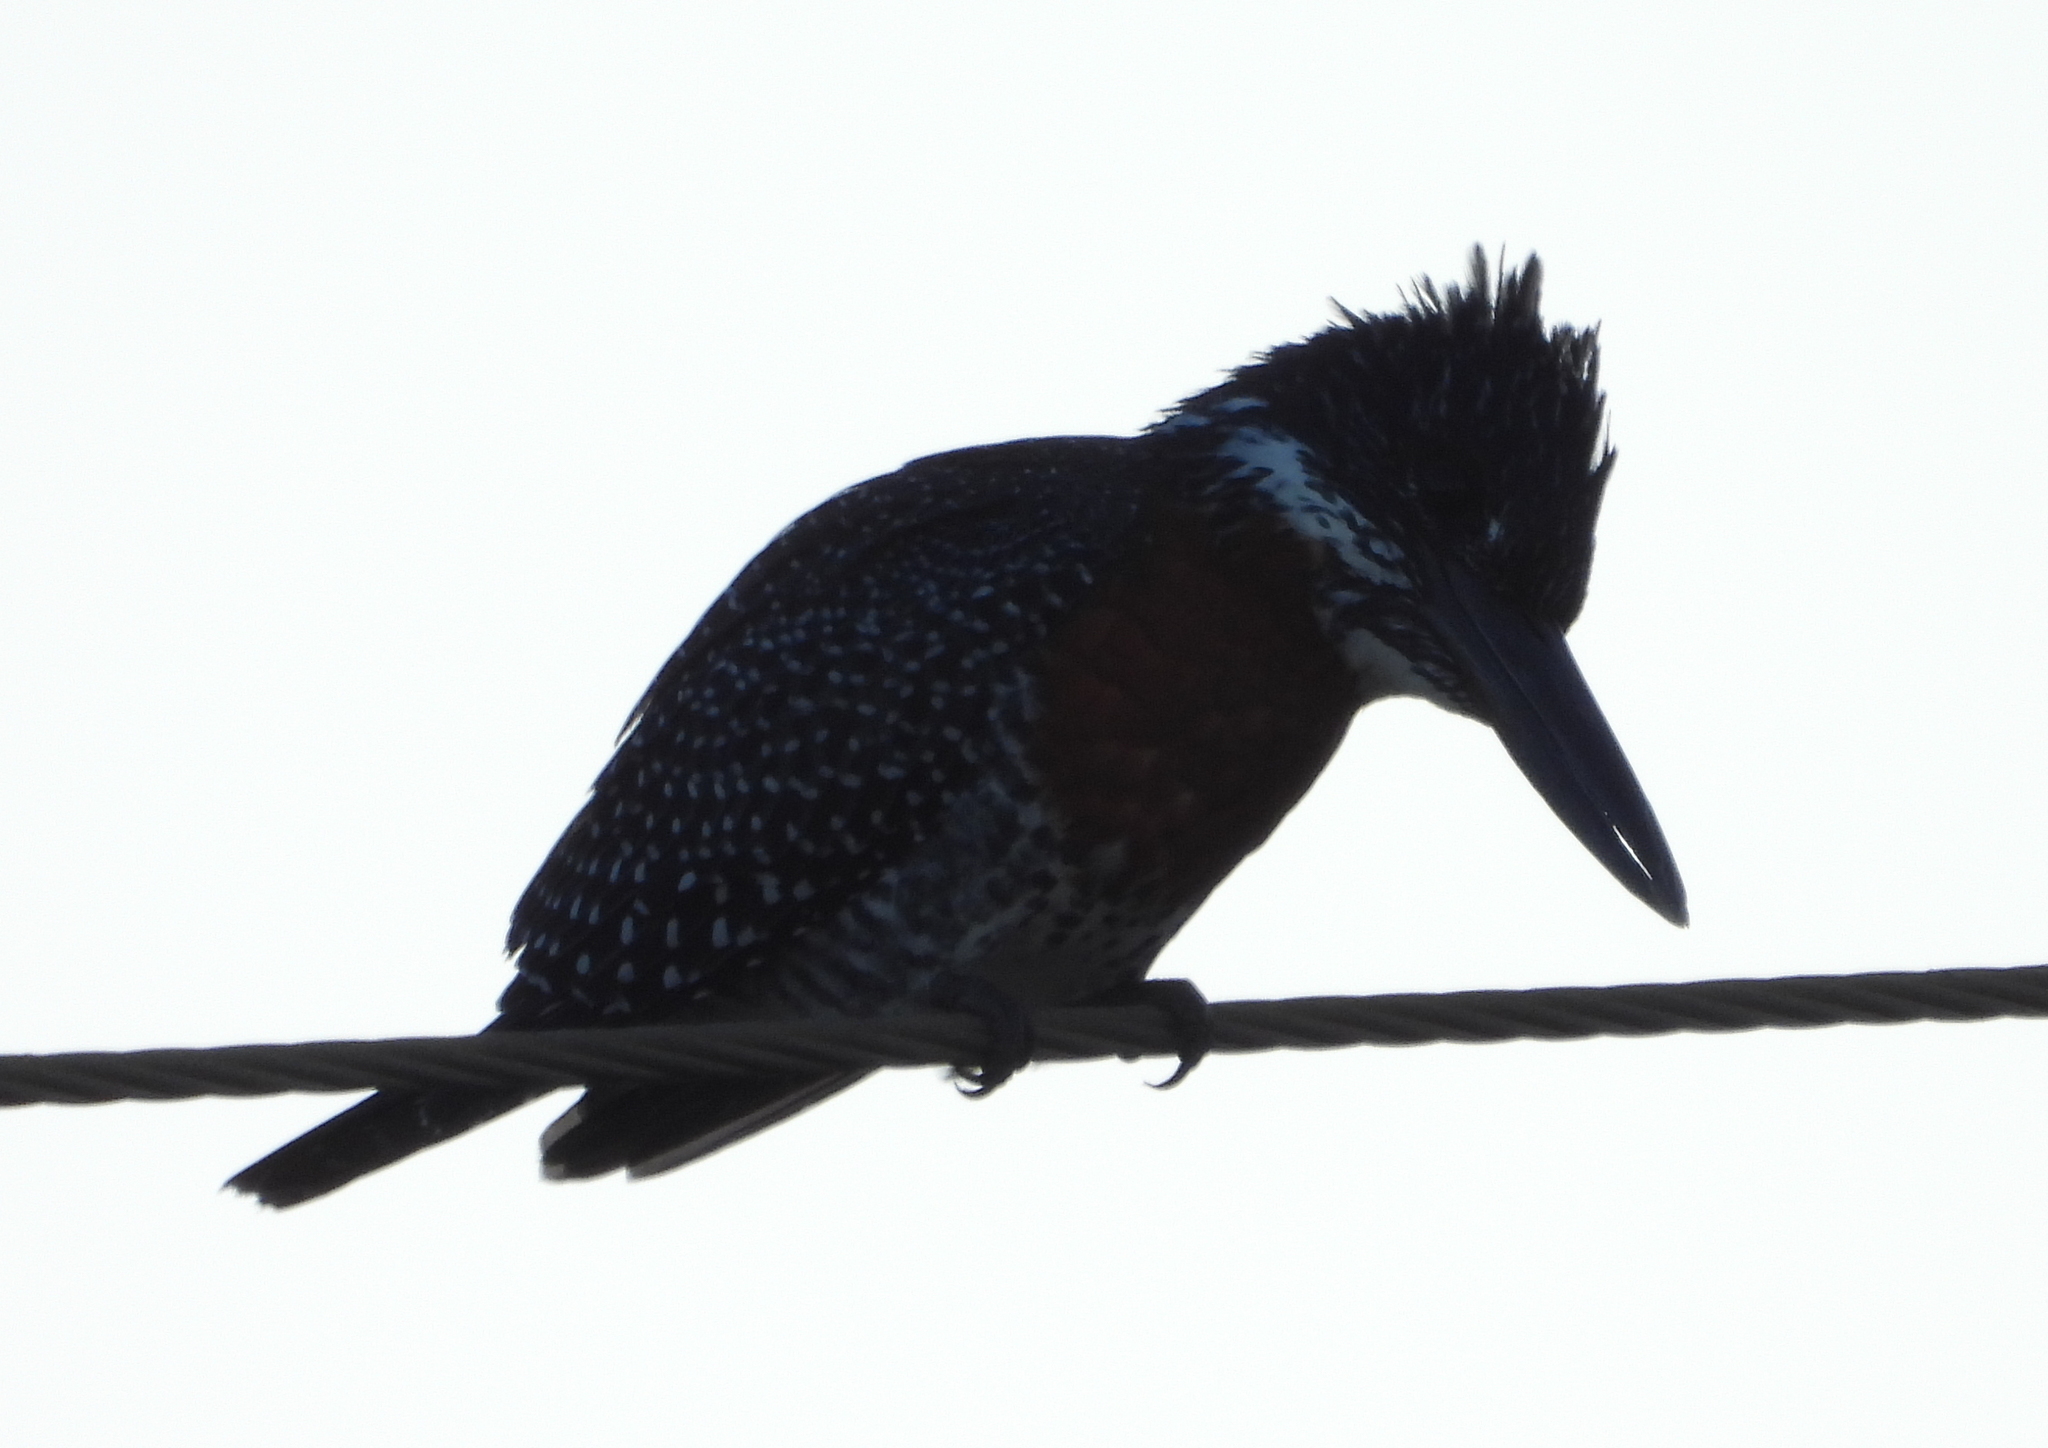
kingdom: Animalia
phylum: Chordata
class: Aves
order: Coraciiformes
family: Alcedinidae
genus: Megaceryle
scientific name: Megaceryle maxima
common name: Giant kingfisher
